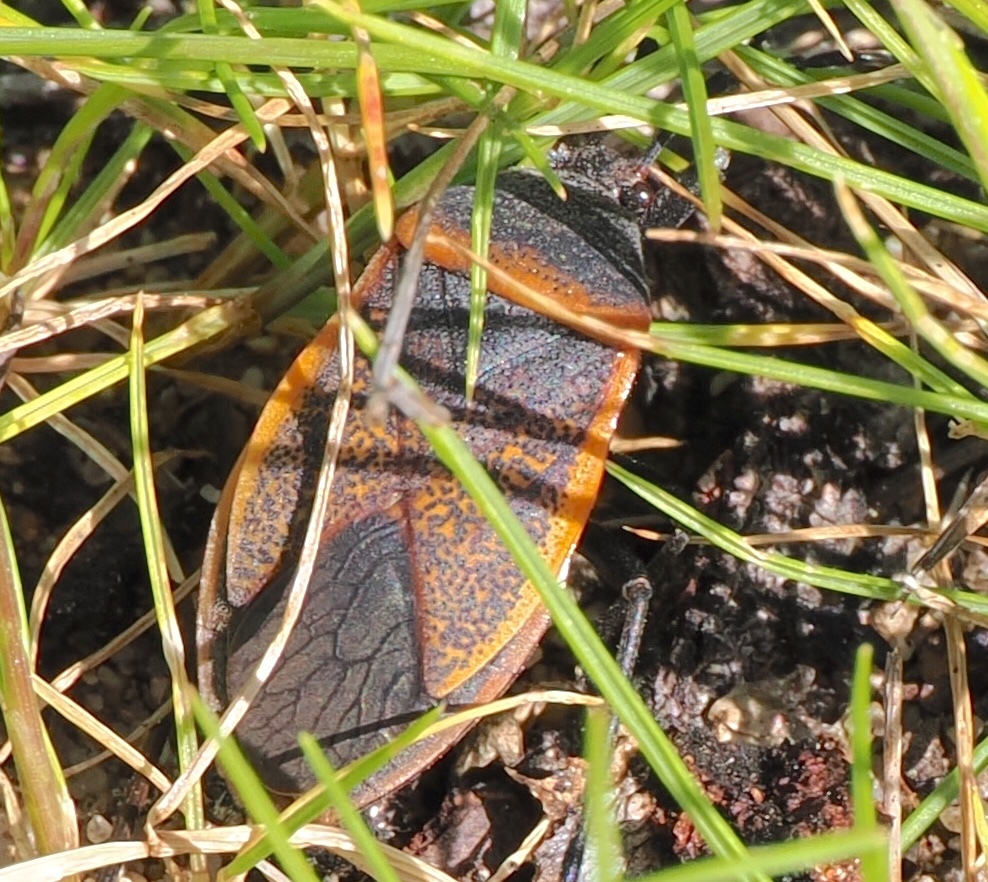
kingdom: Animalia
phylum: Arthropoda
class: Insecta
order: Hemiptera
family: Largidae
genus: Largus
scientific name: Largus californicus
